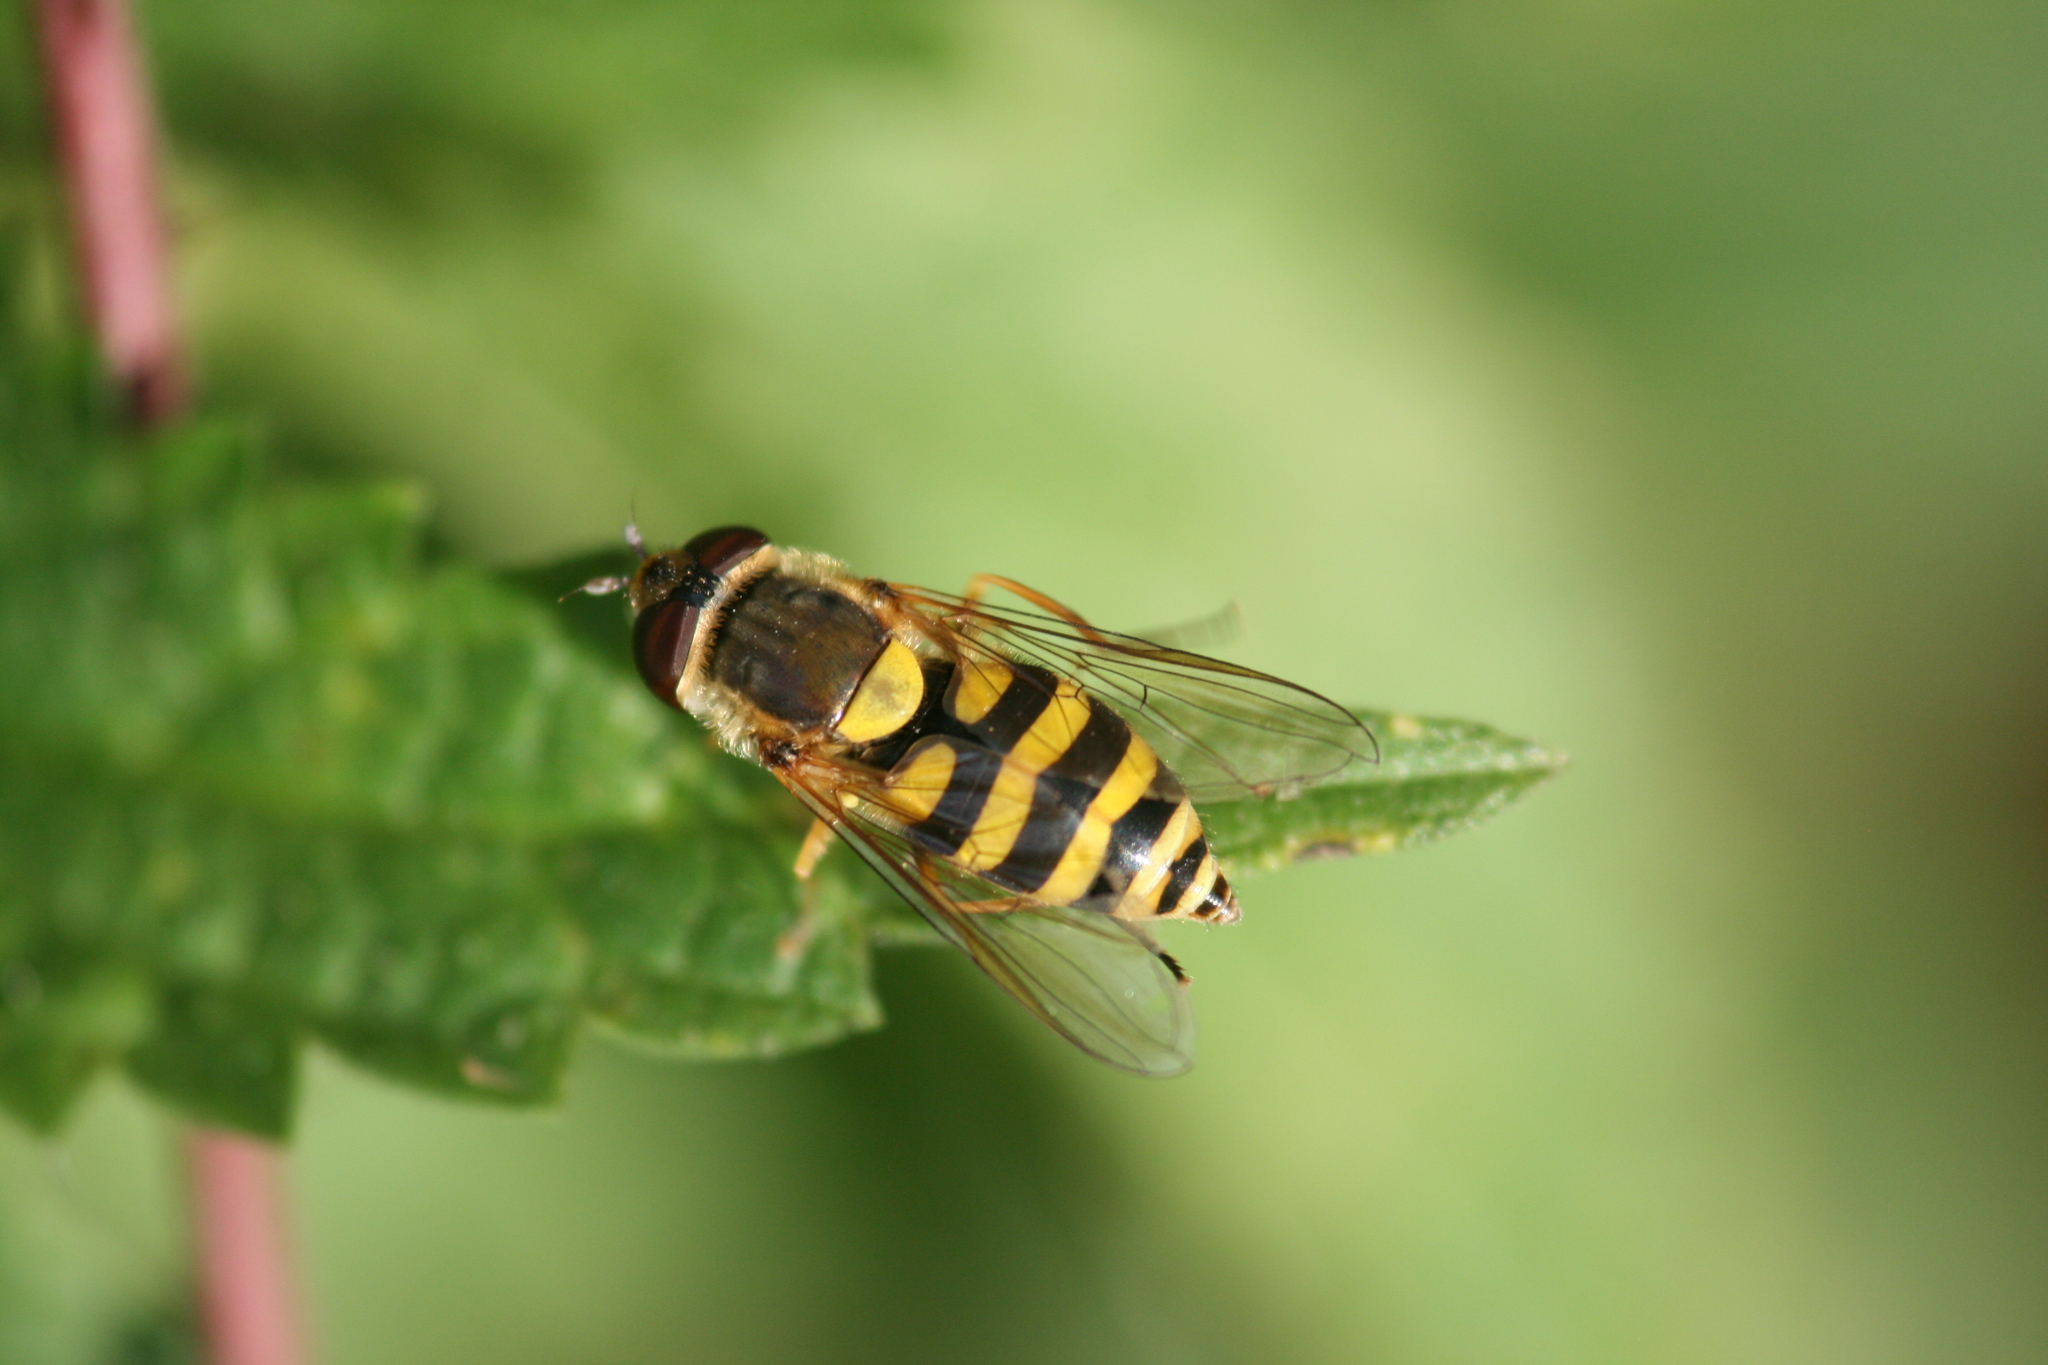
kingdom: Animalia
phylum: Arthropoda
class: Insecta
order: Diptera
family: Syrphidae
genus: Syrphus
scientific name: Syrphus
